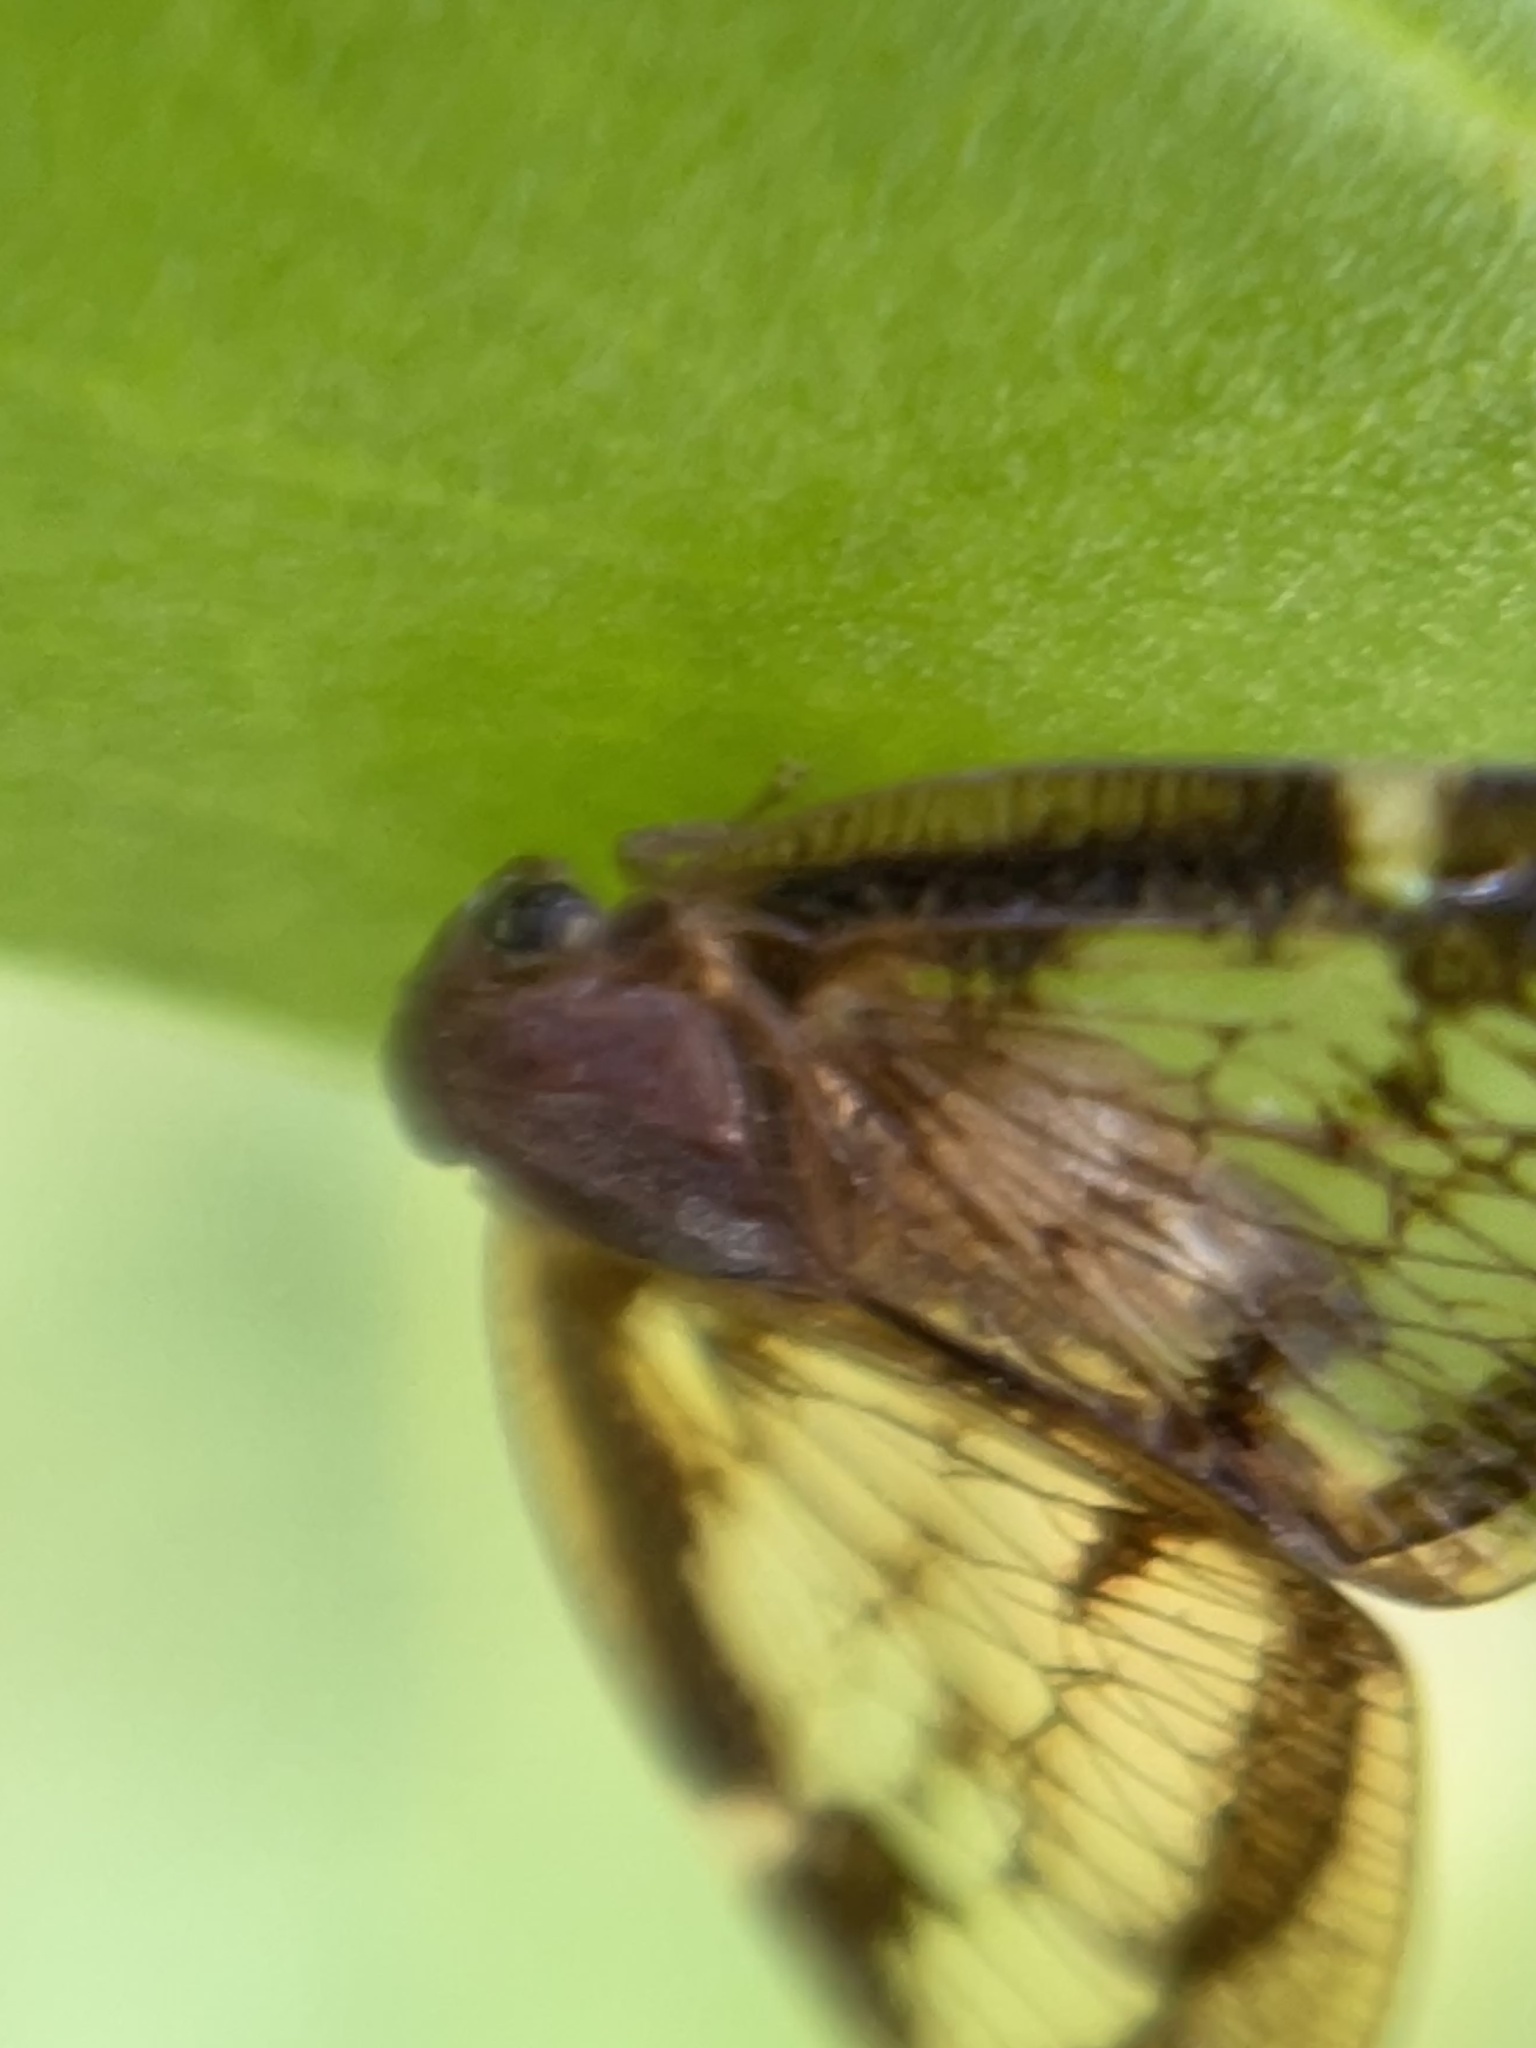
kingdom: Animalia
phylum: Arthropoda
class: Insecta
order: Hemiptera
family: Ricaniidae
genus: Scolypopa
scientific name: Scolypopa australis
